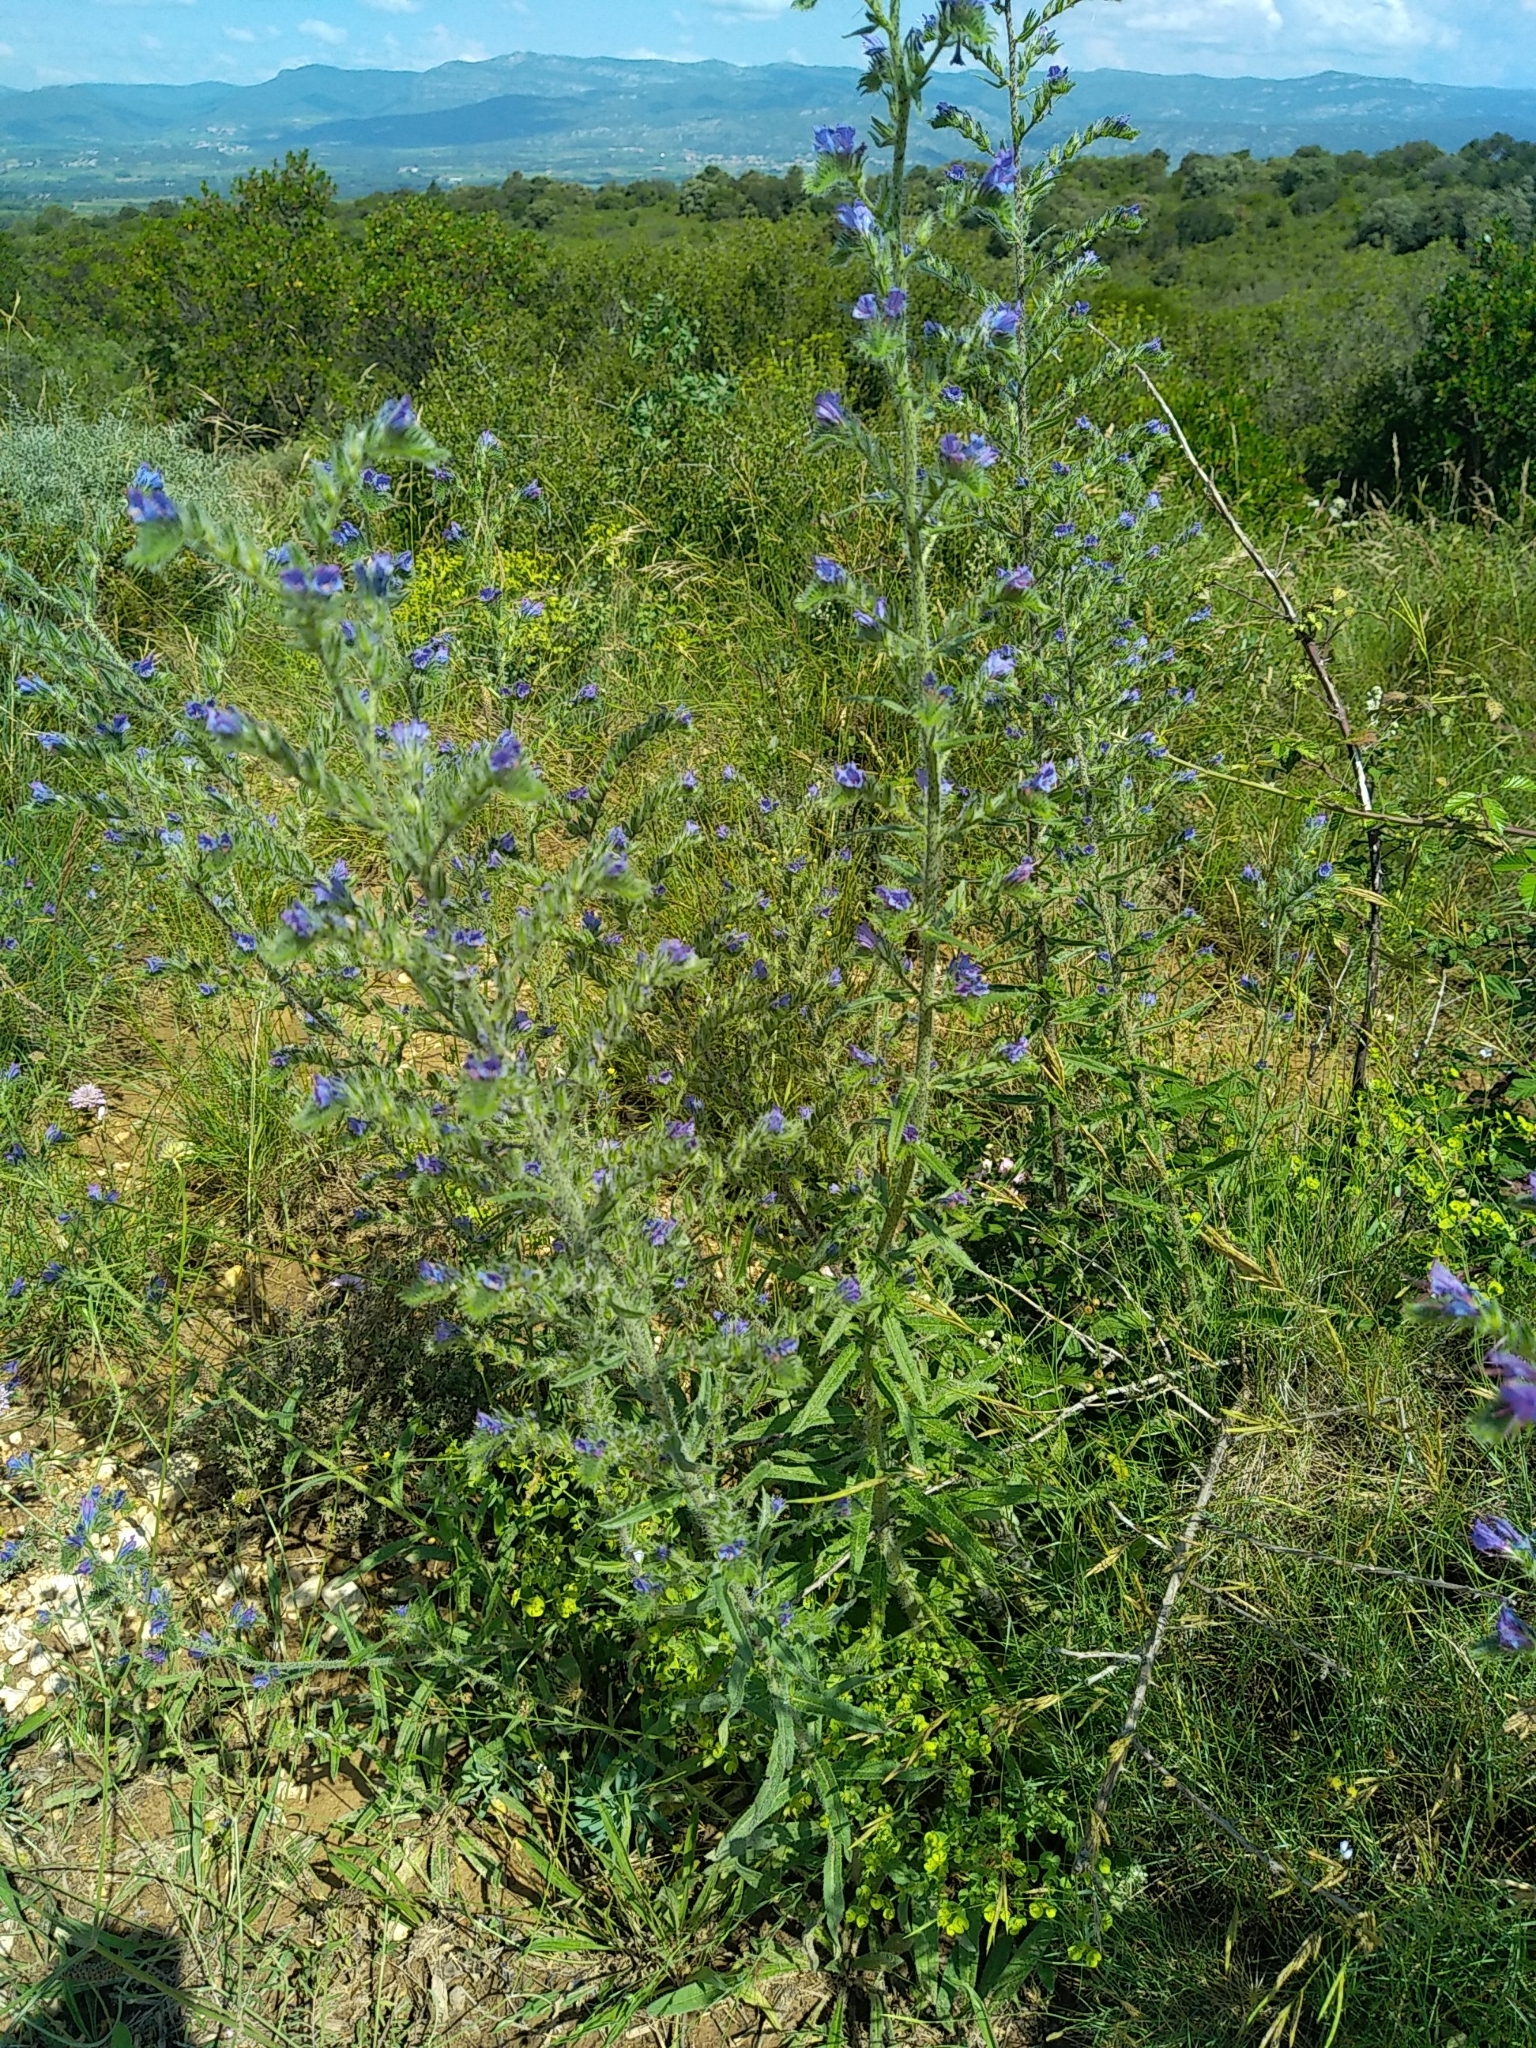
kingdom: Plantae
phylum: Tracheophyta
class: Magnoliopsida
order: Boraginales
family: Boraginaceae
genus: Echium
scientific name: Echium vulgare
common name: Common viper's bugloss
